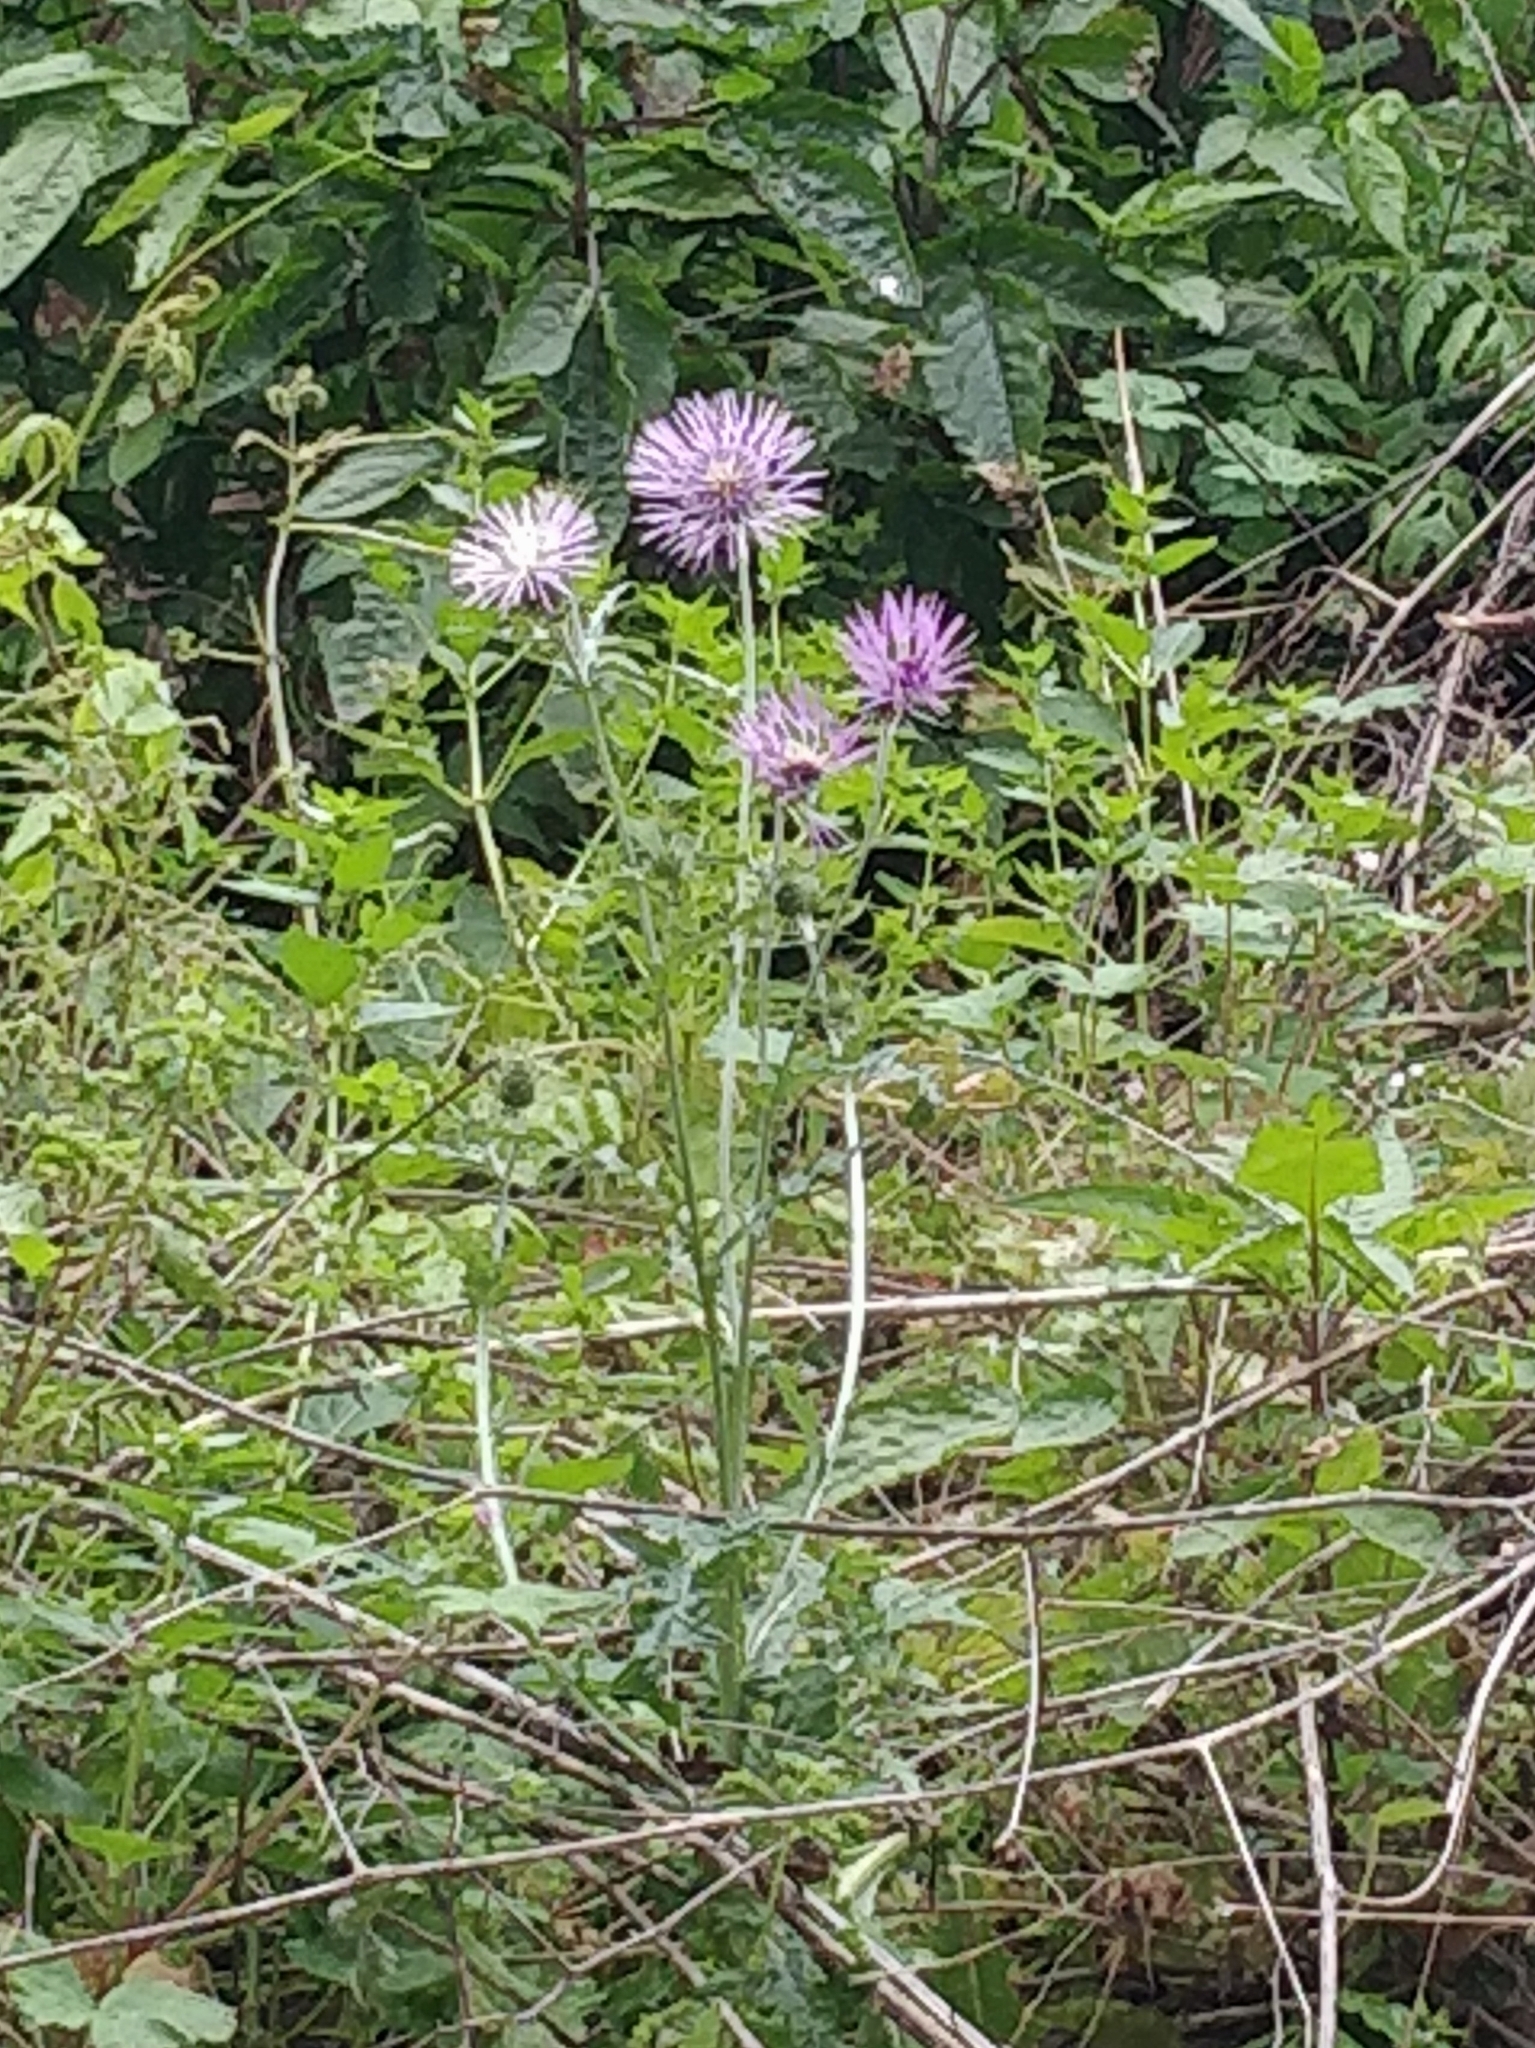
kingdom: Plantae
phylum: Tracheophyta
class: Magnoliopsida
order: Asterales
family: Asteraceae
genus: Galactites
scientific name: Galactites tomentosa
